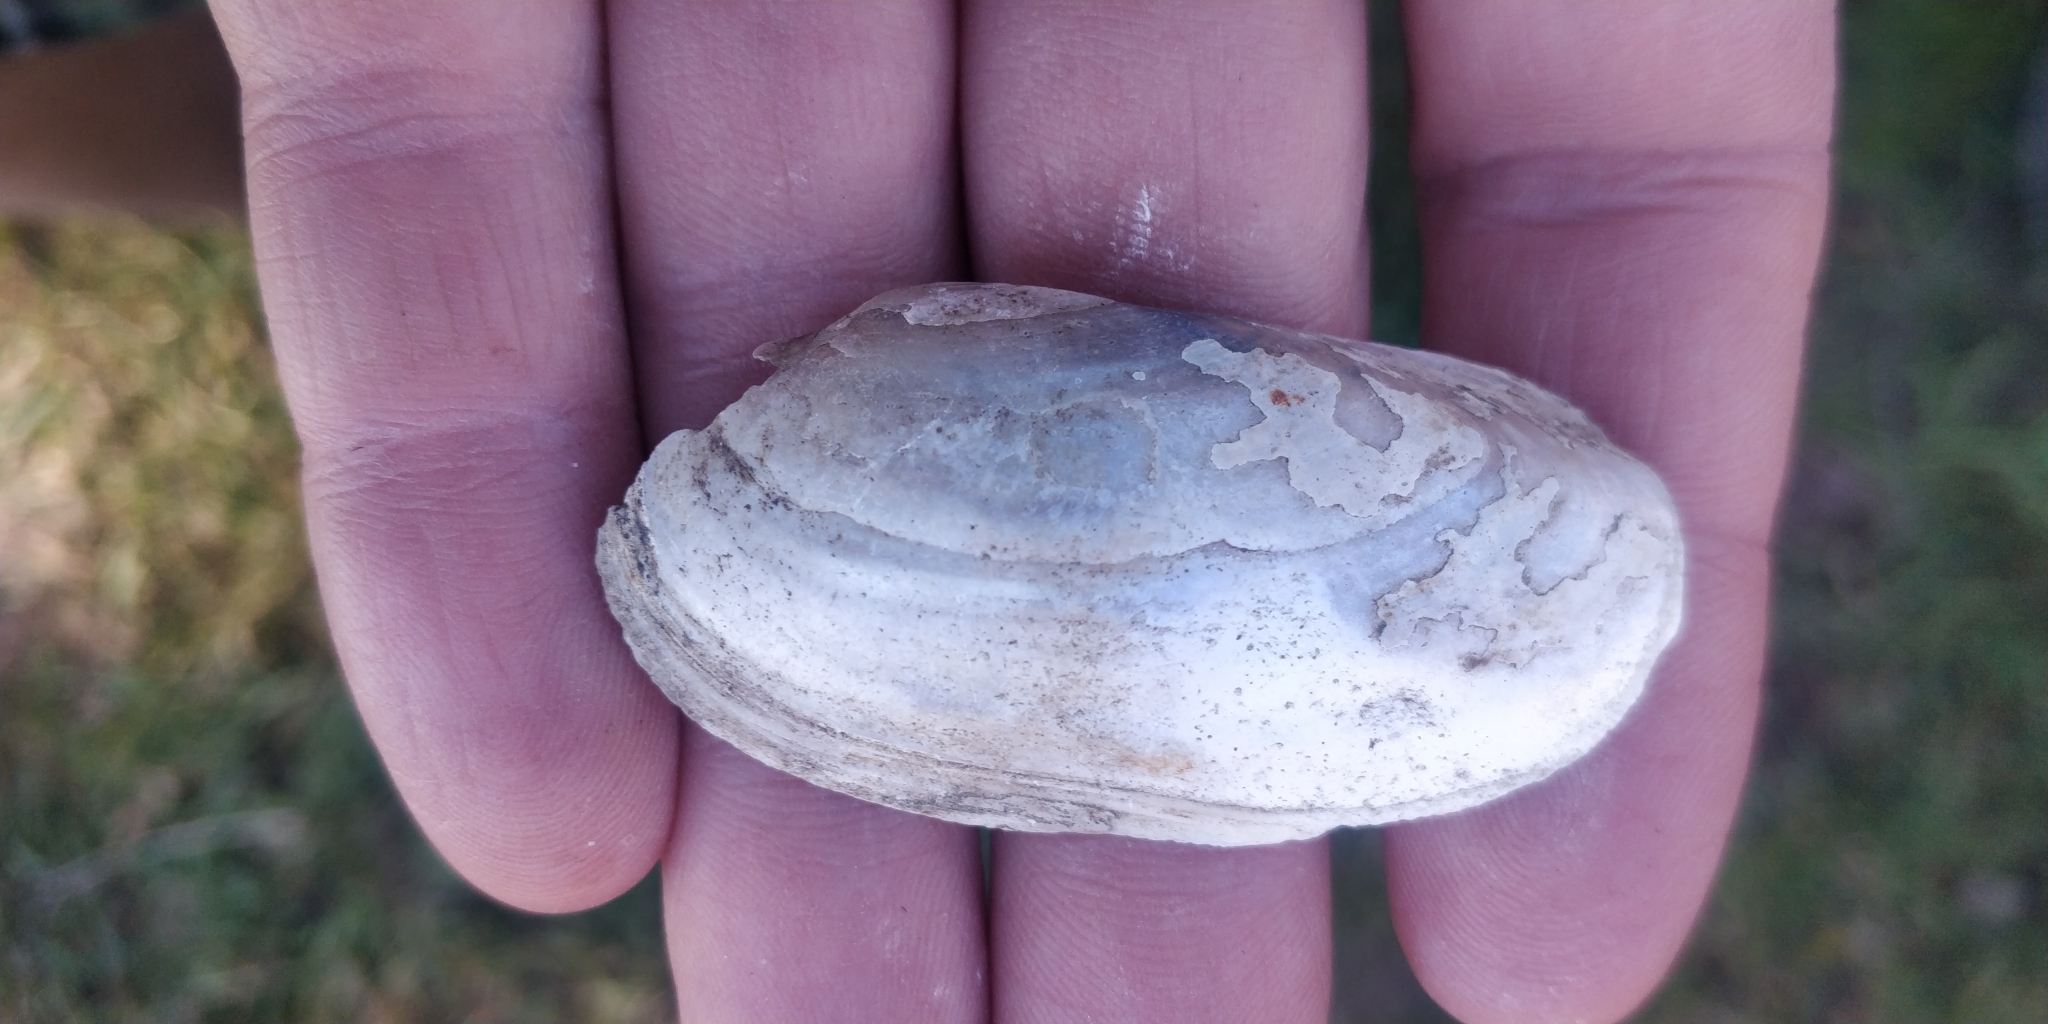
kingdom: Animalia
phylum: Mollusca
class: Bivalvia
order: Unionida
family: Unionidae
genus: Lampsilis
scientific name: Lampsilis teres
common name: Yellow sandshell
